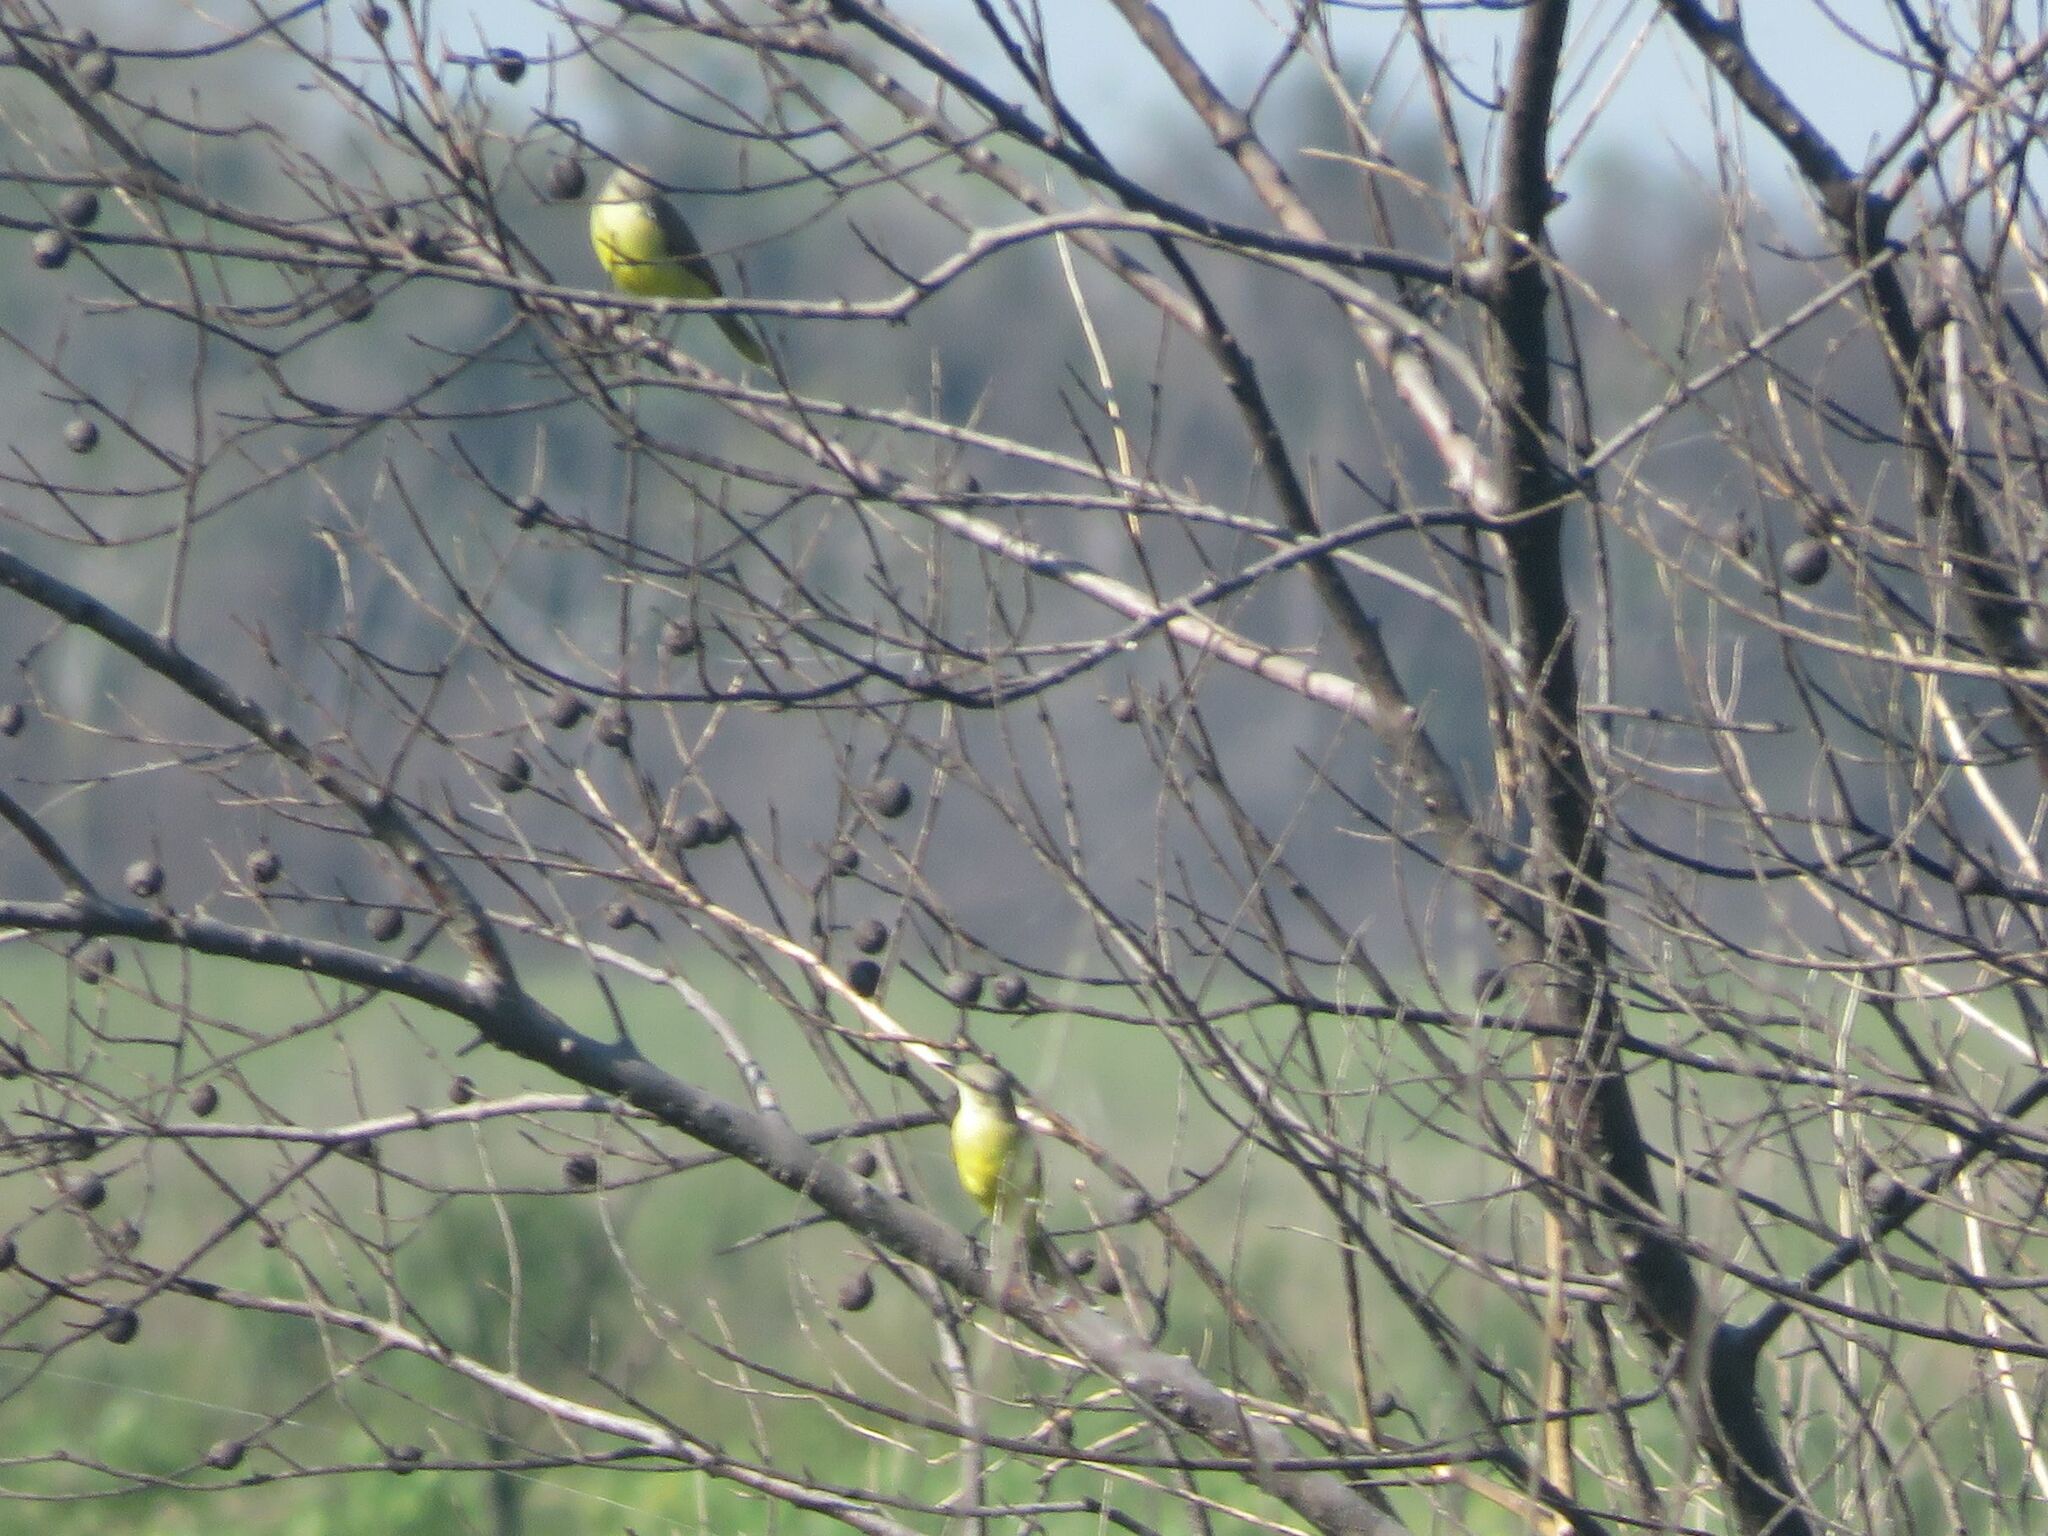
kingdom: Animalia
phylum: Chordata
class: Aves
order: Passeriformes
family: Tyrannidae
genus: Machetornis
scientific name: Machetornis rixosa
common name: Cattle tyrant
